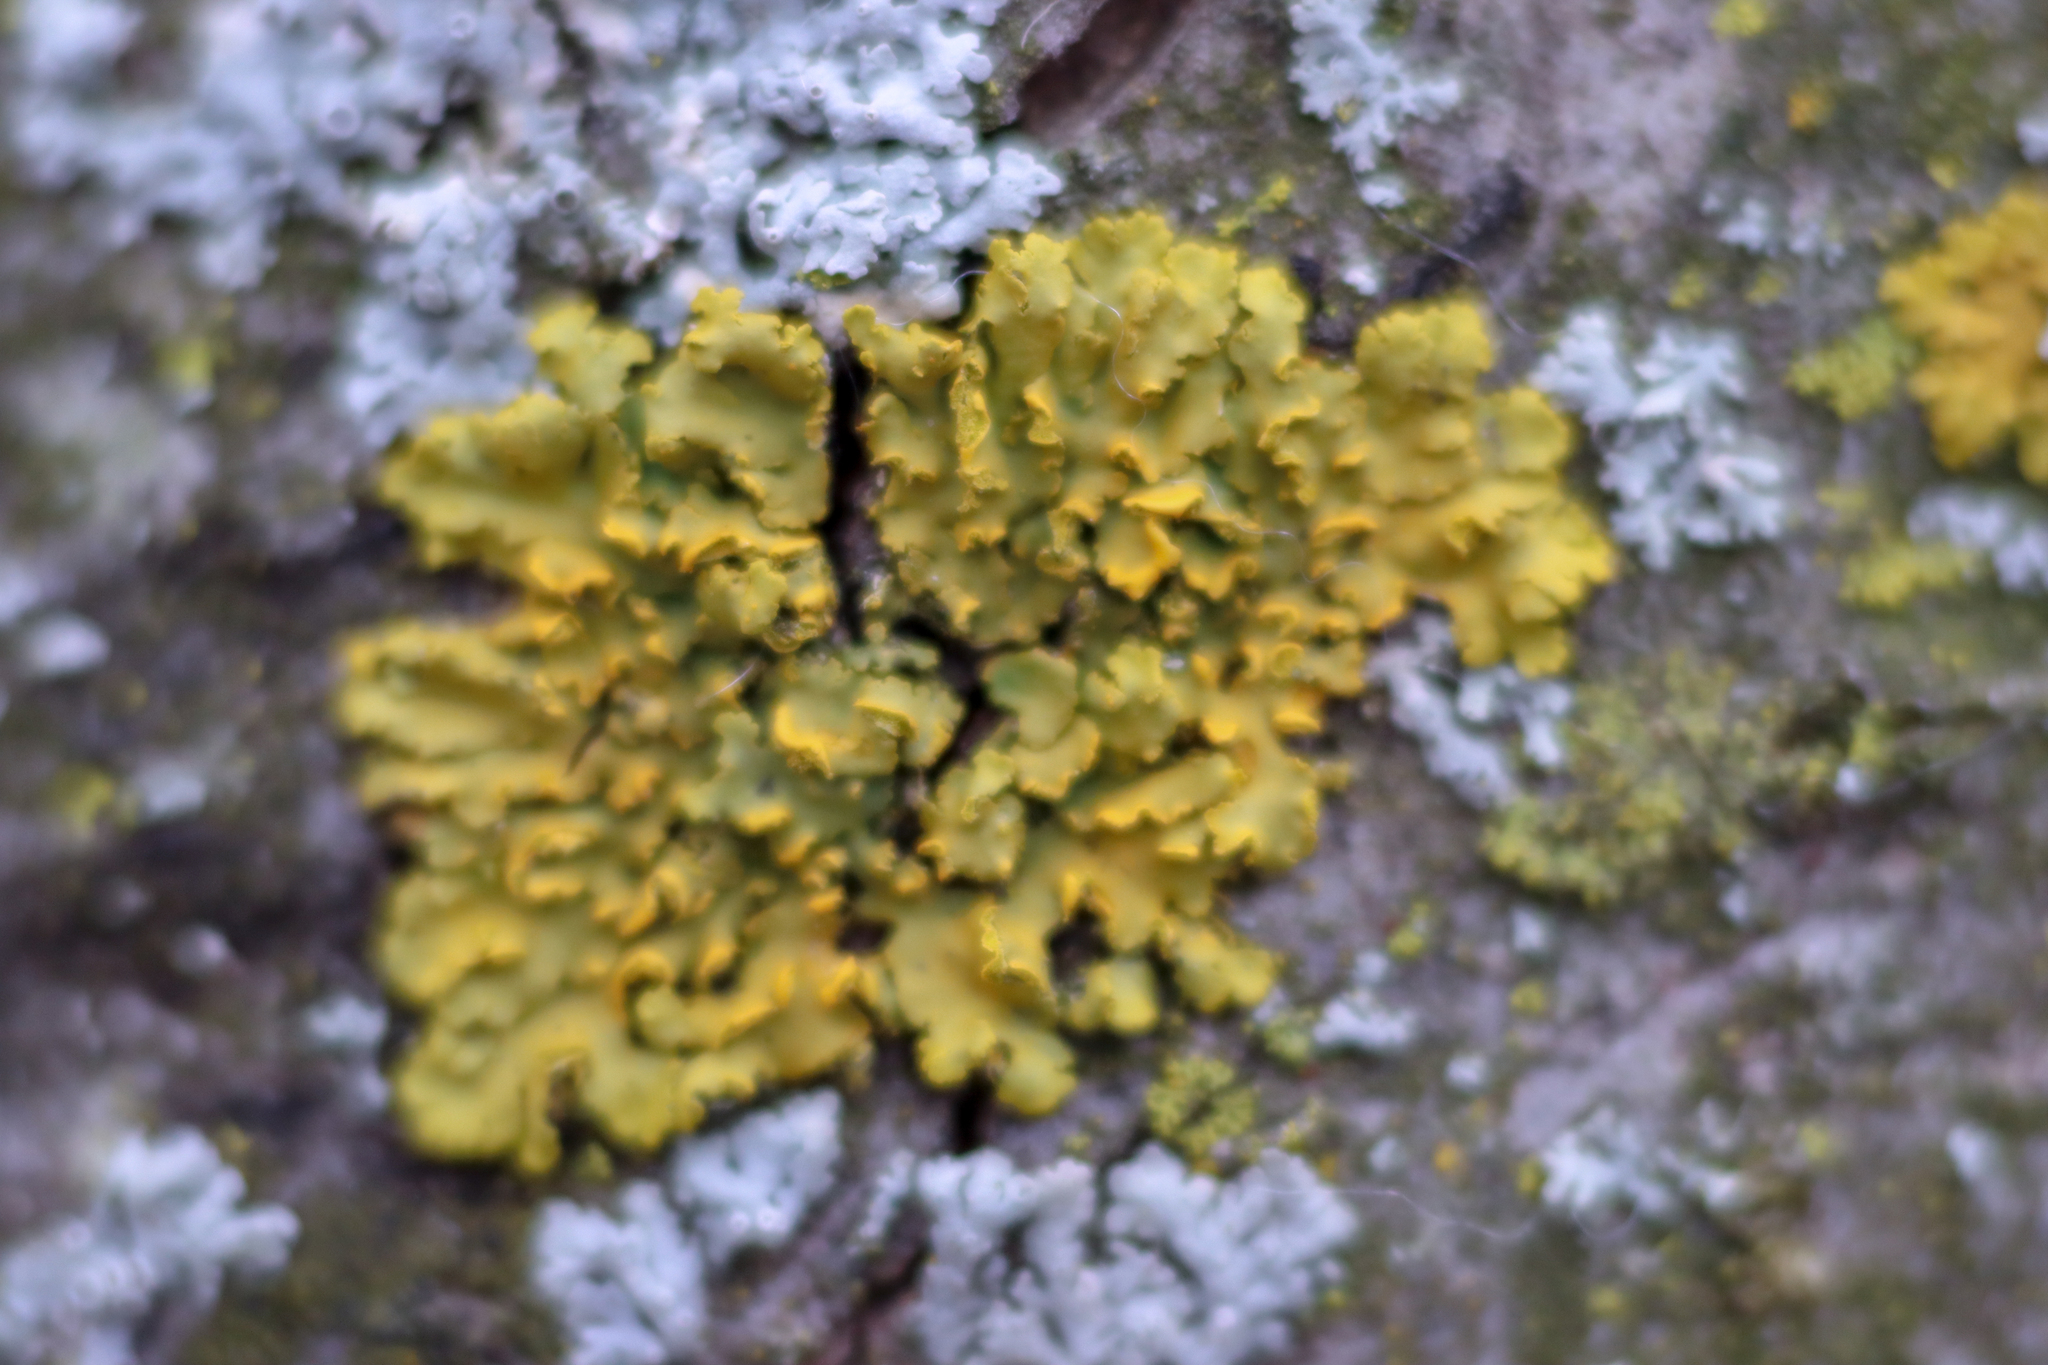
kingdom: Fungi
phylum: Ascomycota
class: Lecanoromycetes
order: Teloschistales
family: Teloschistaceae
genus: Oxneria
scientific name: Oxneria fallax
